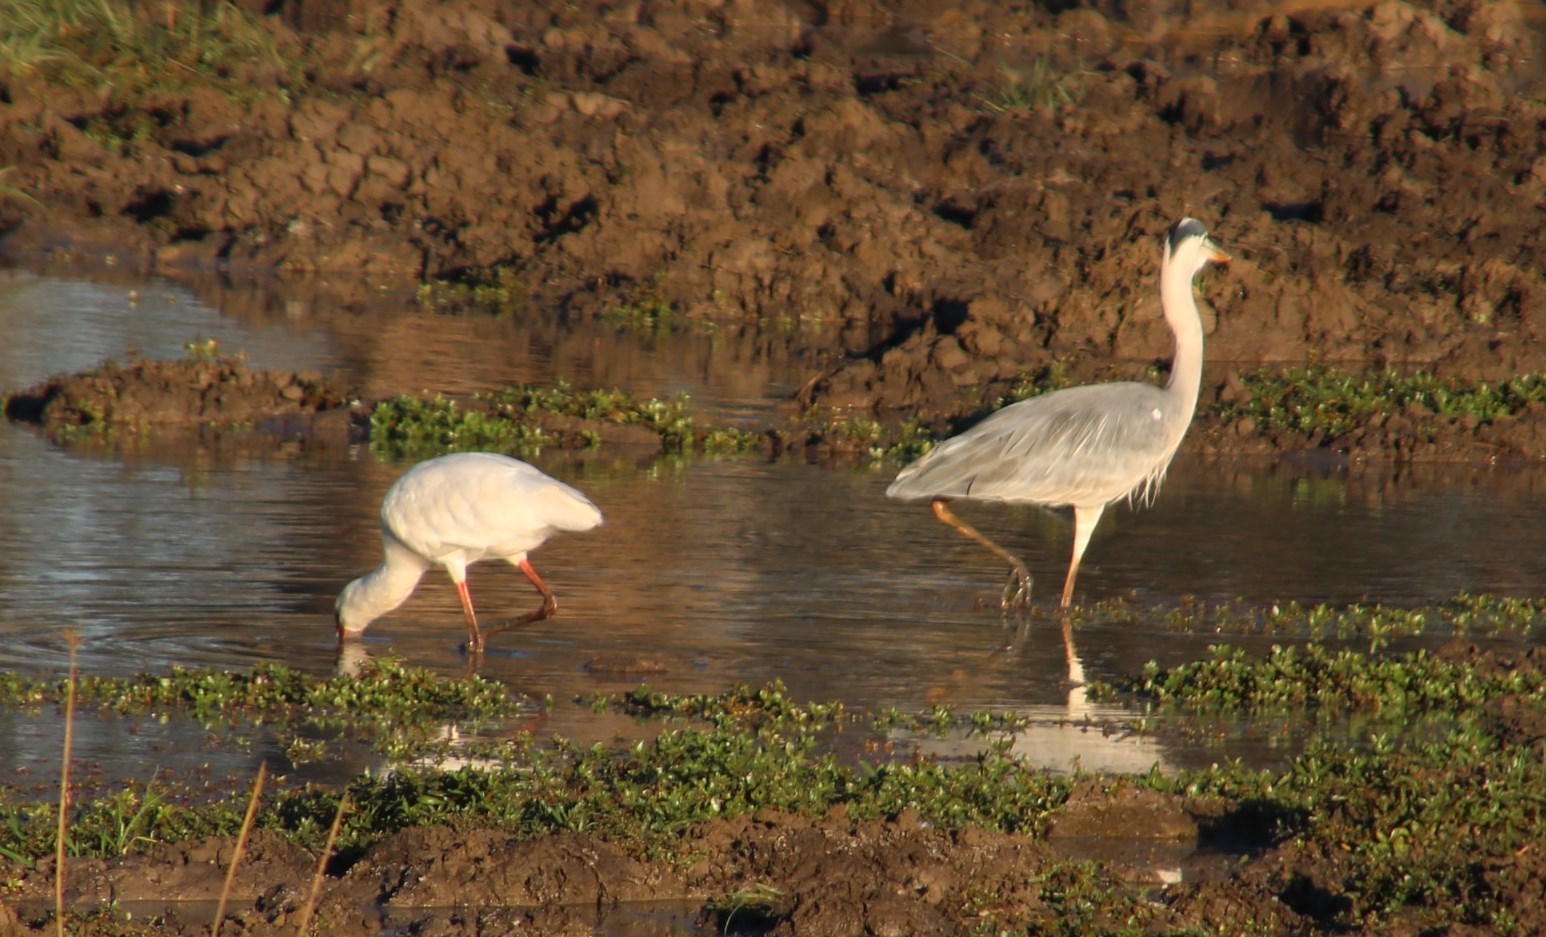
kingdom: Animalia
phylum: Chordata
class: Aves
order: Pelecaniformes
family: Ardeidae
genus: Ardea
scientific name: Ardea cinerea
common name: Grey heron
